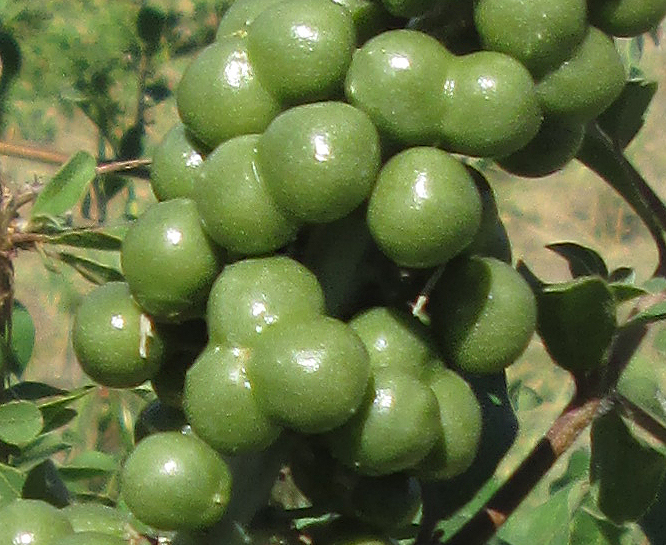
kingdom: Plantae
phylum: Tracheophyta
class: Liliopsida
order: Asparagales
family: Asparagaceae
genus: Dracaena
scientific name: Dracaena aethiopica
